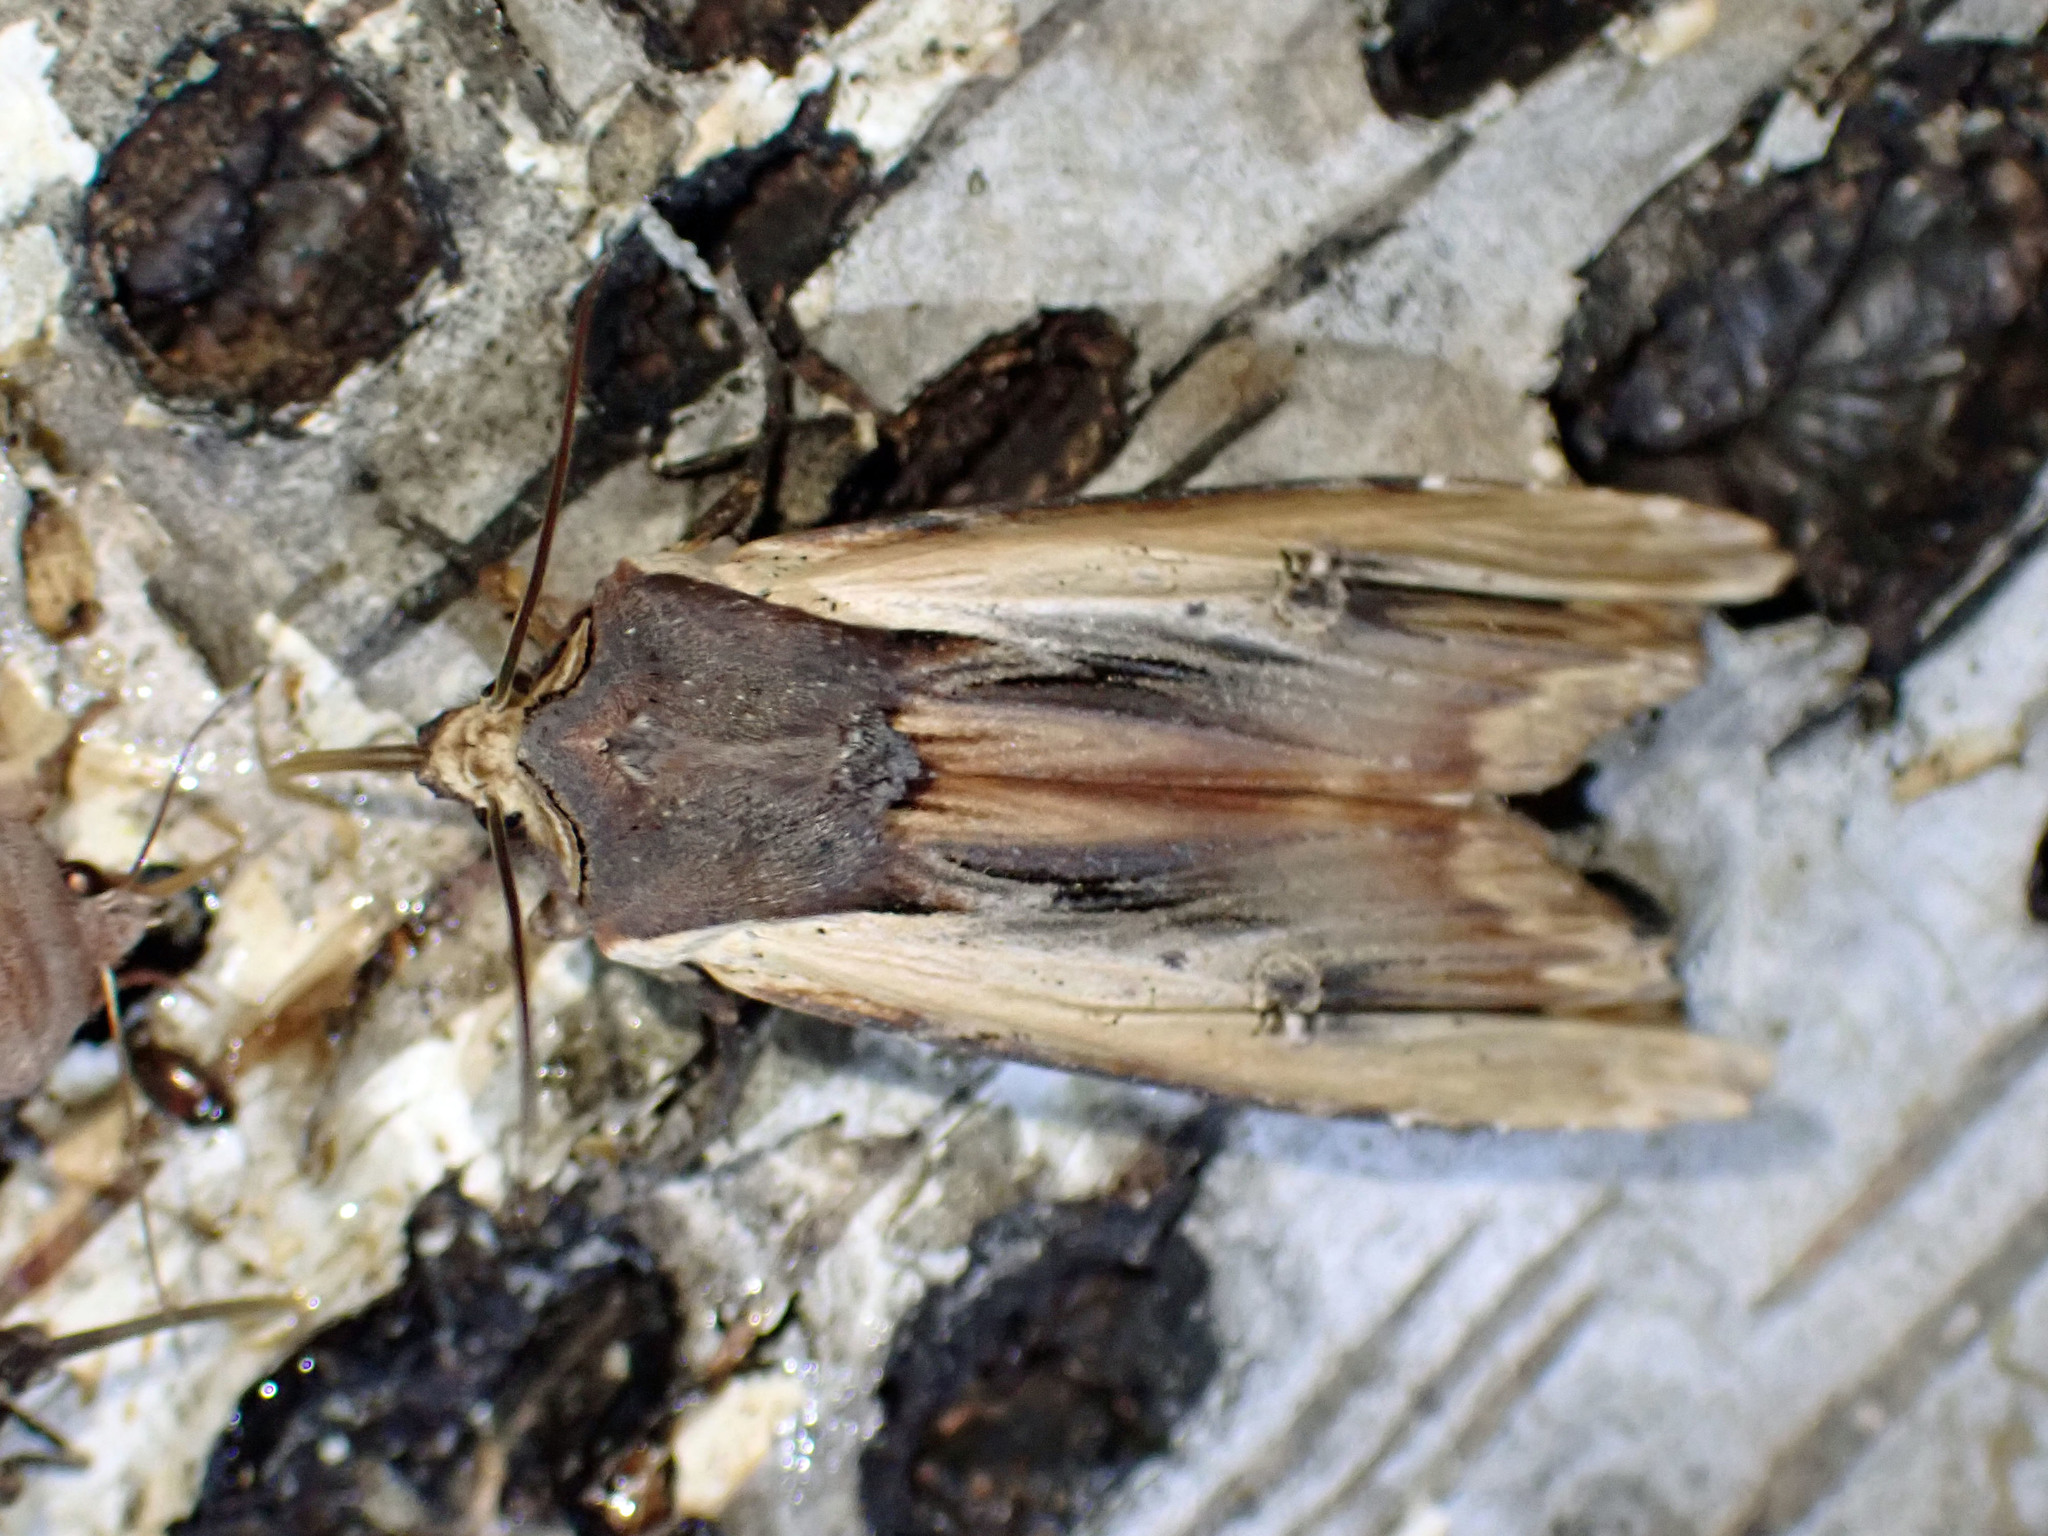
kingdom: Animalia
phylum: Arthropoda
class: Insecta
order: Lepidoptera
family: Noctuidae
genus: Xylena
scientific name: Xylena nupera
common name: American swordgrass moth
